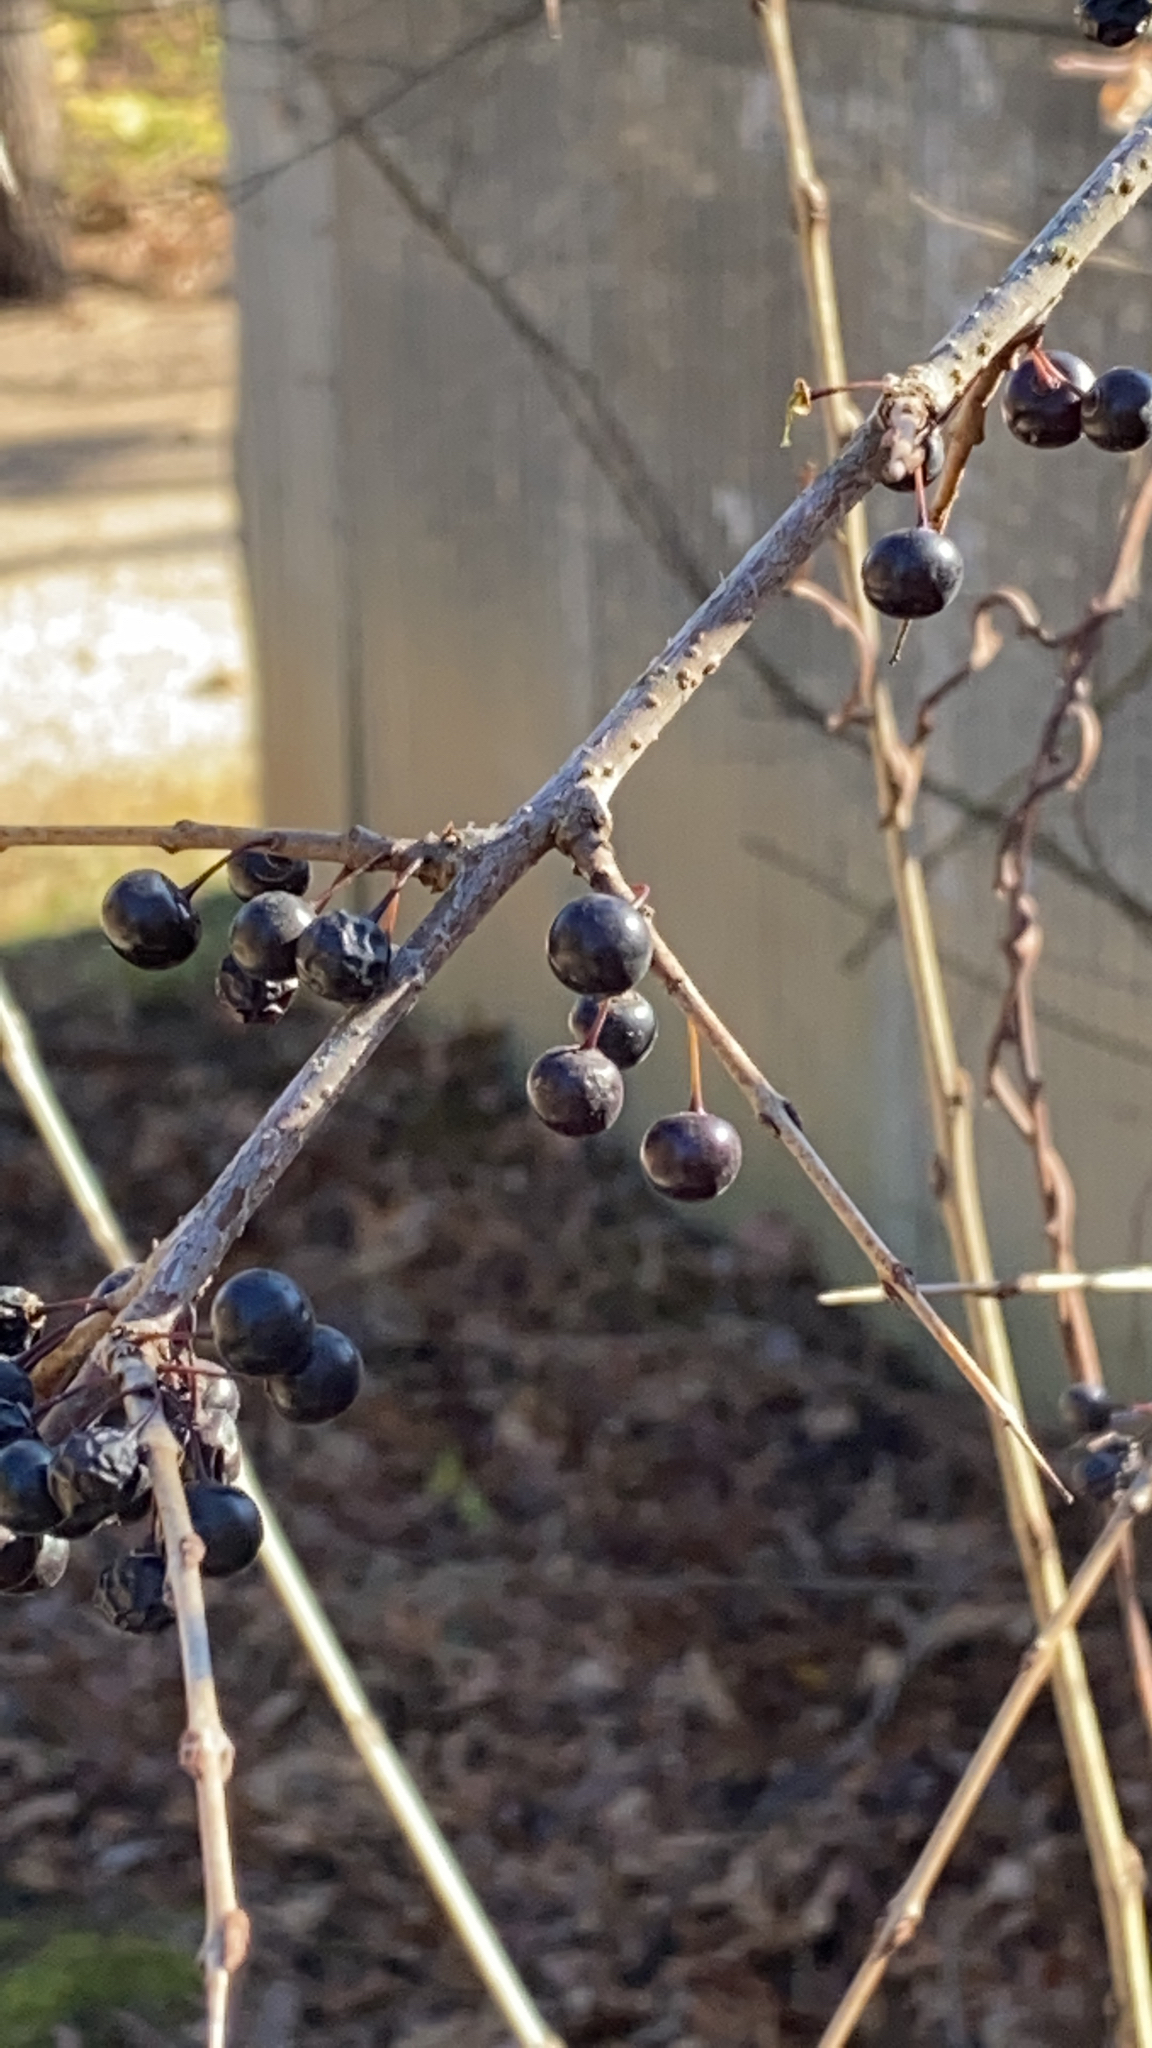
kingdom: Plantae
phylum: Tracheophyta
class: Magnoliopsida
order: Rosales
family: Rhamnaceae
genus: Rhamnus
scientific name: Rhamnus cathartica
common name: Common buckthorn
